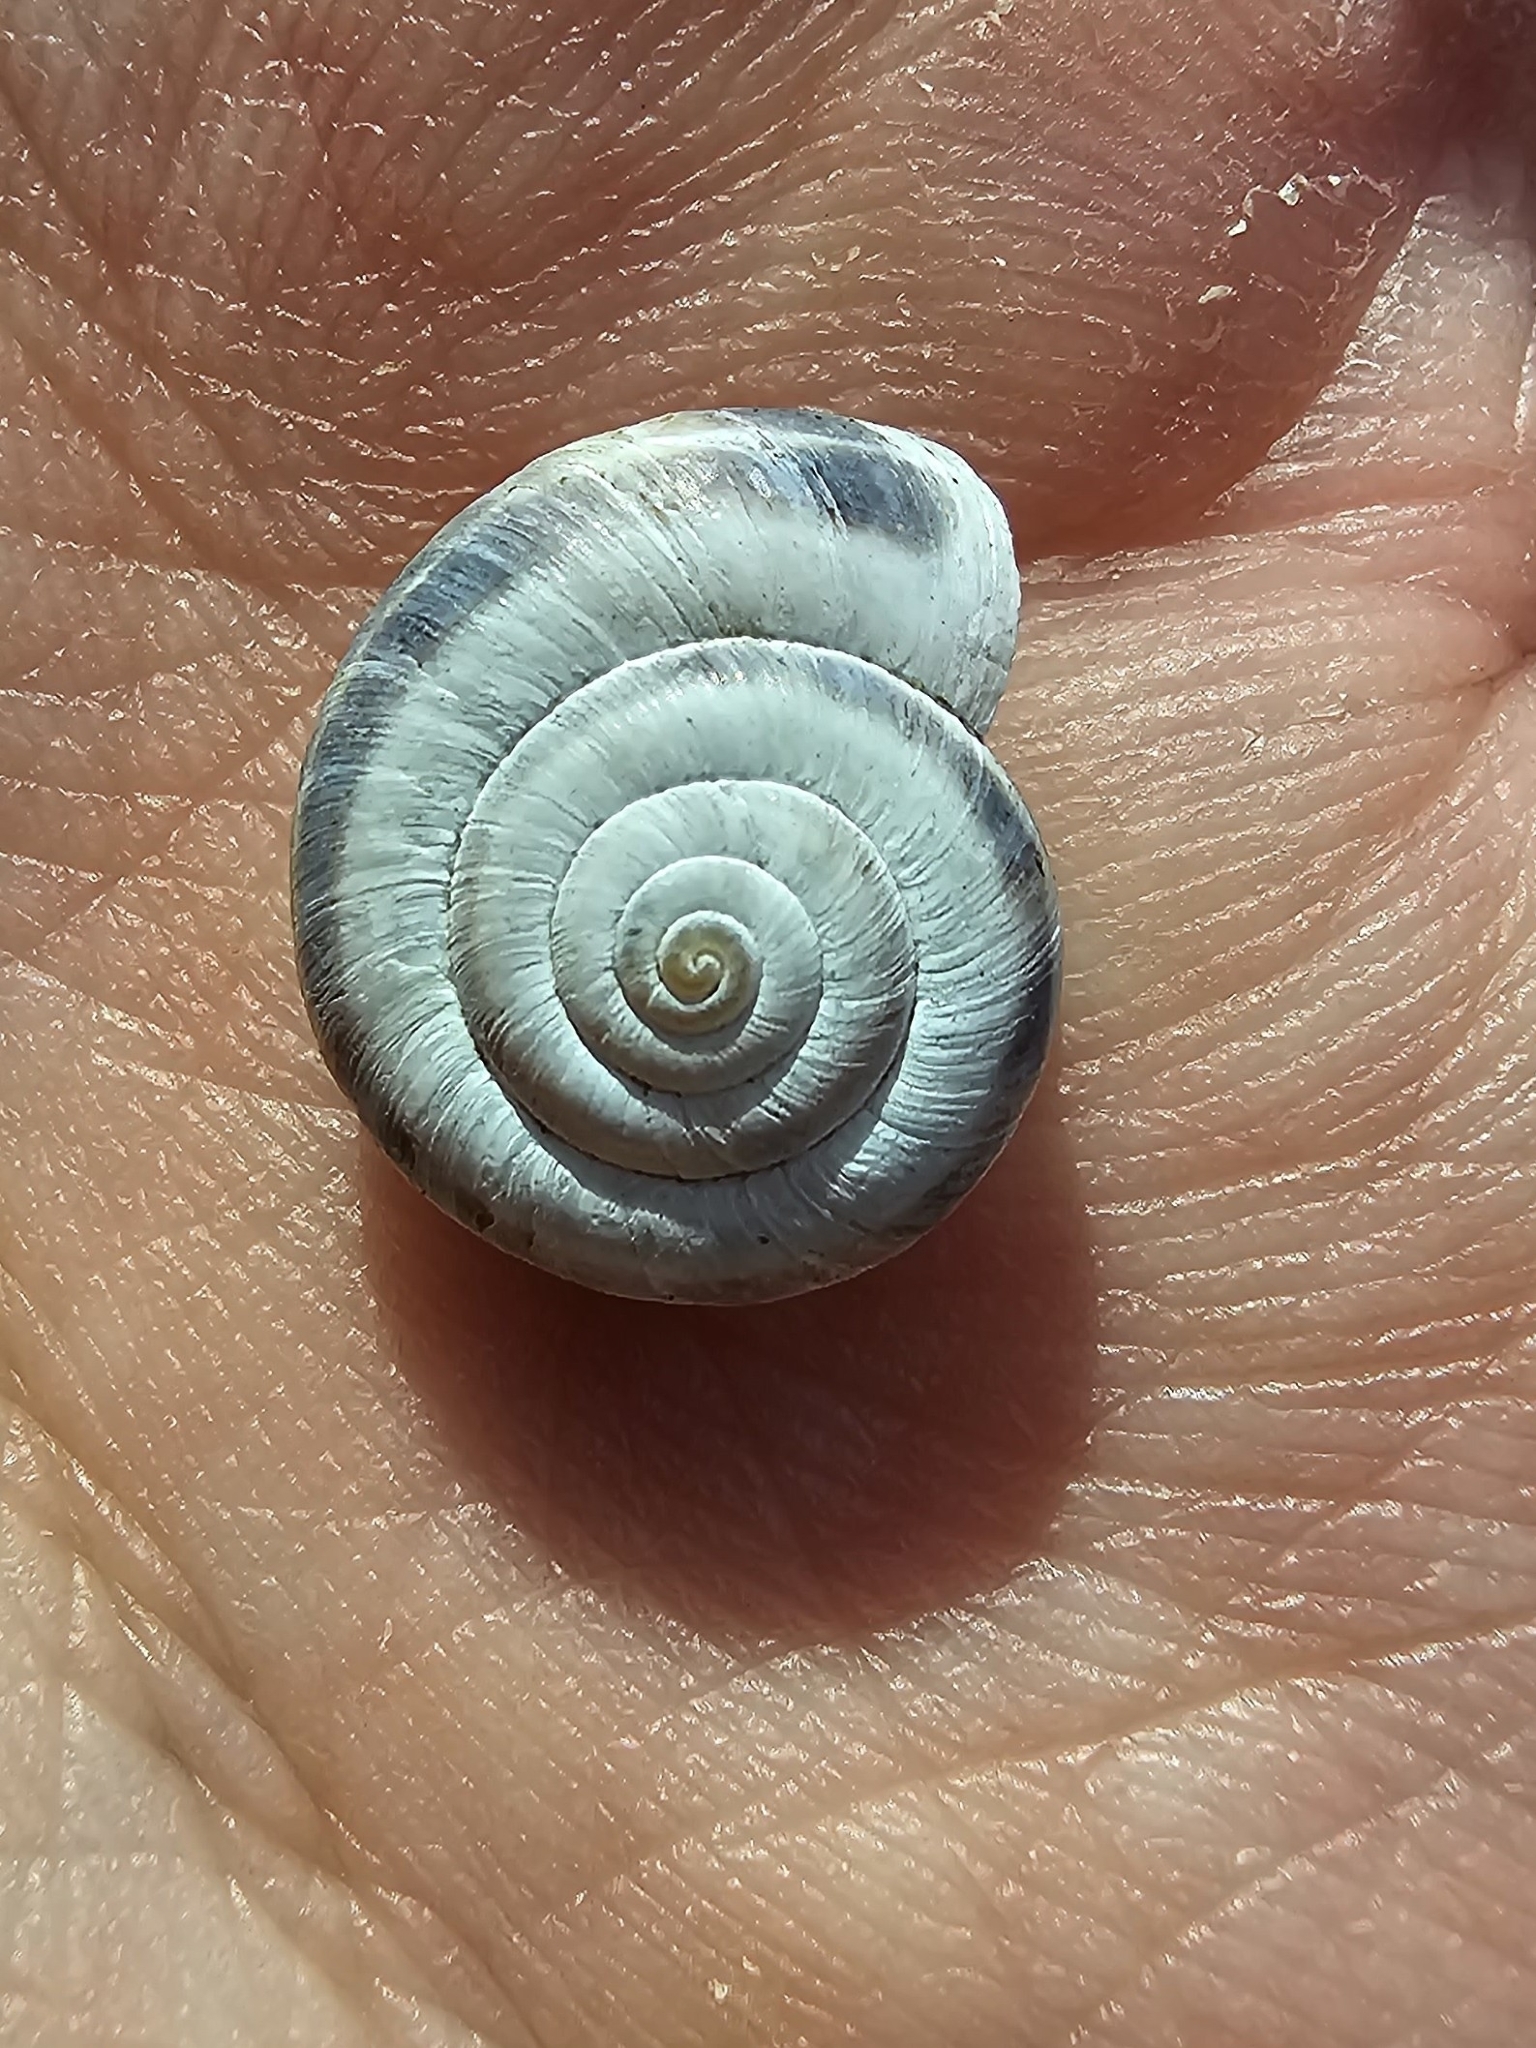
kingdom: Animalia
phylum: Mollusca
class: Gastropoda
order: Stylommatophora
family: Geomitridae
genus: Xerolenta
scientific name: Xerolenta obvia
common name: White heath snail
